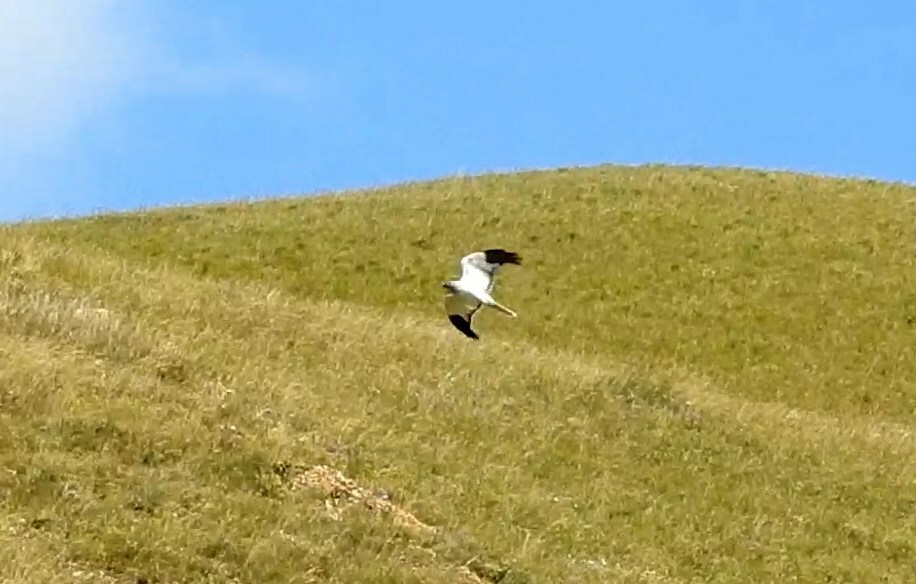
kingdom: Animalia
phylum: Chordata
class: Aves
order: Accipitriformes
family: Accipitridae
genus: Circus
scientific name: Circus cyaneus
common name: Hen harrier
